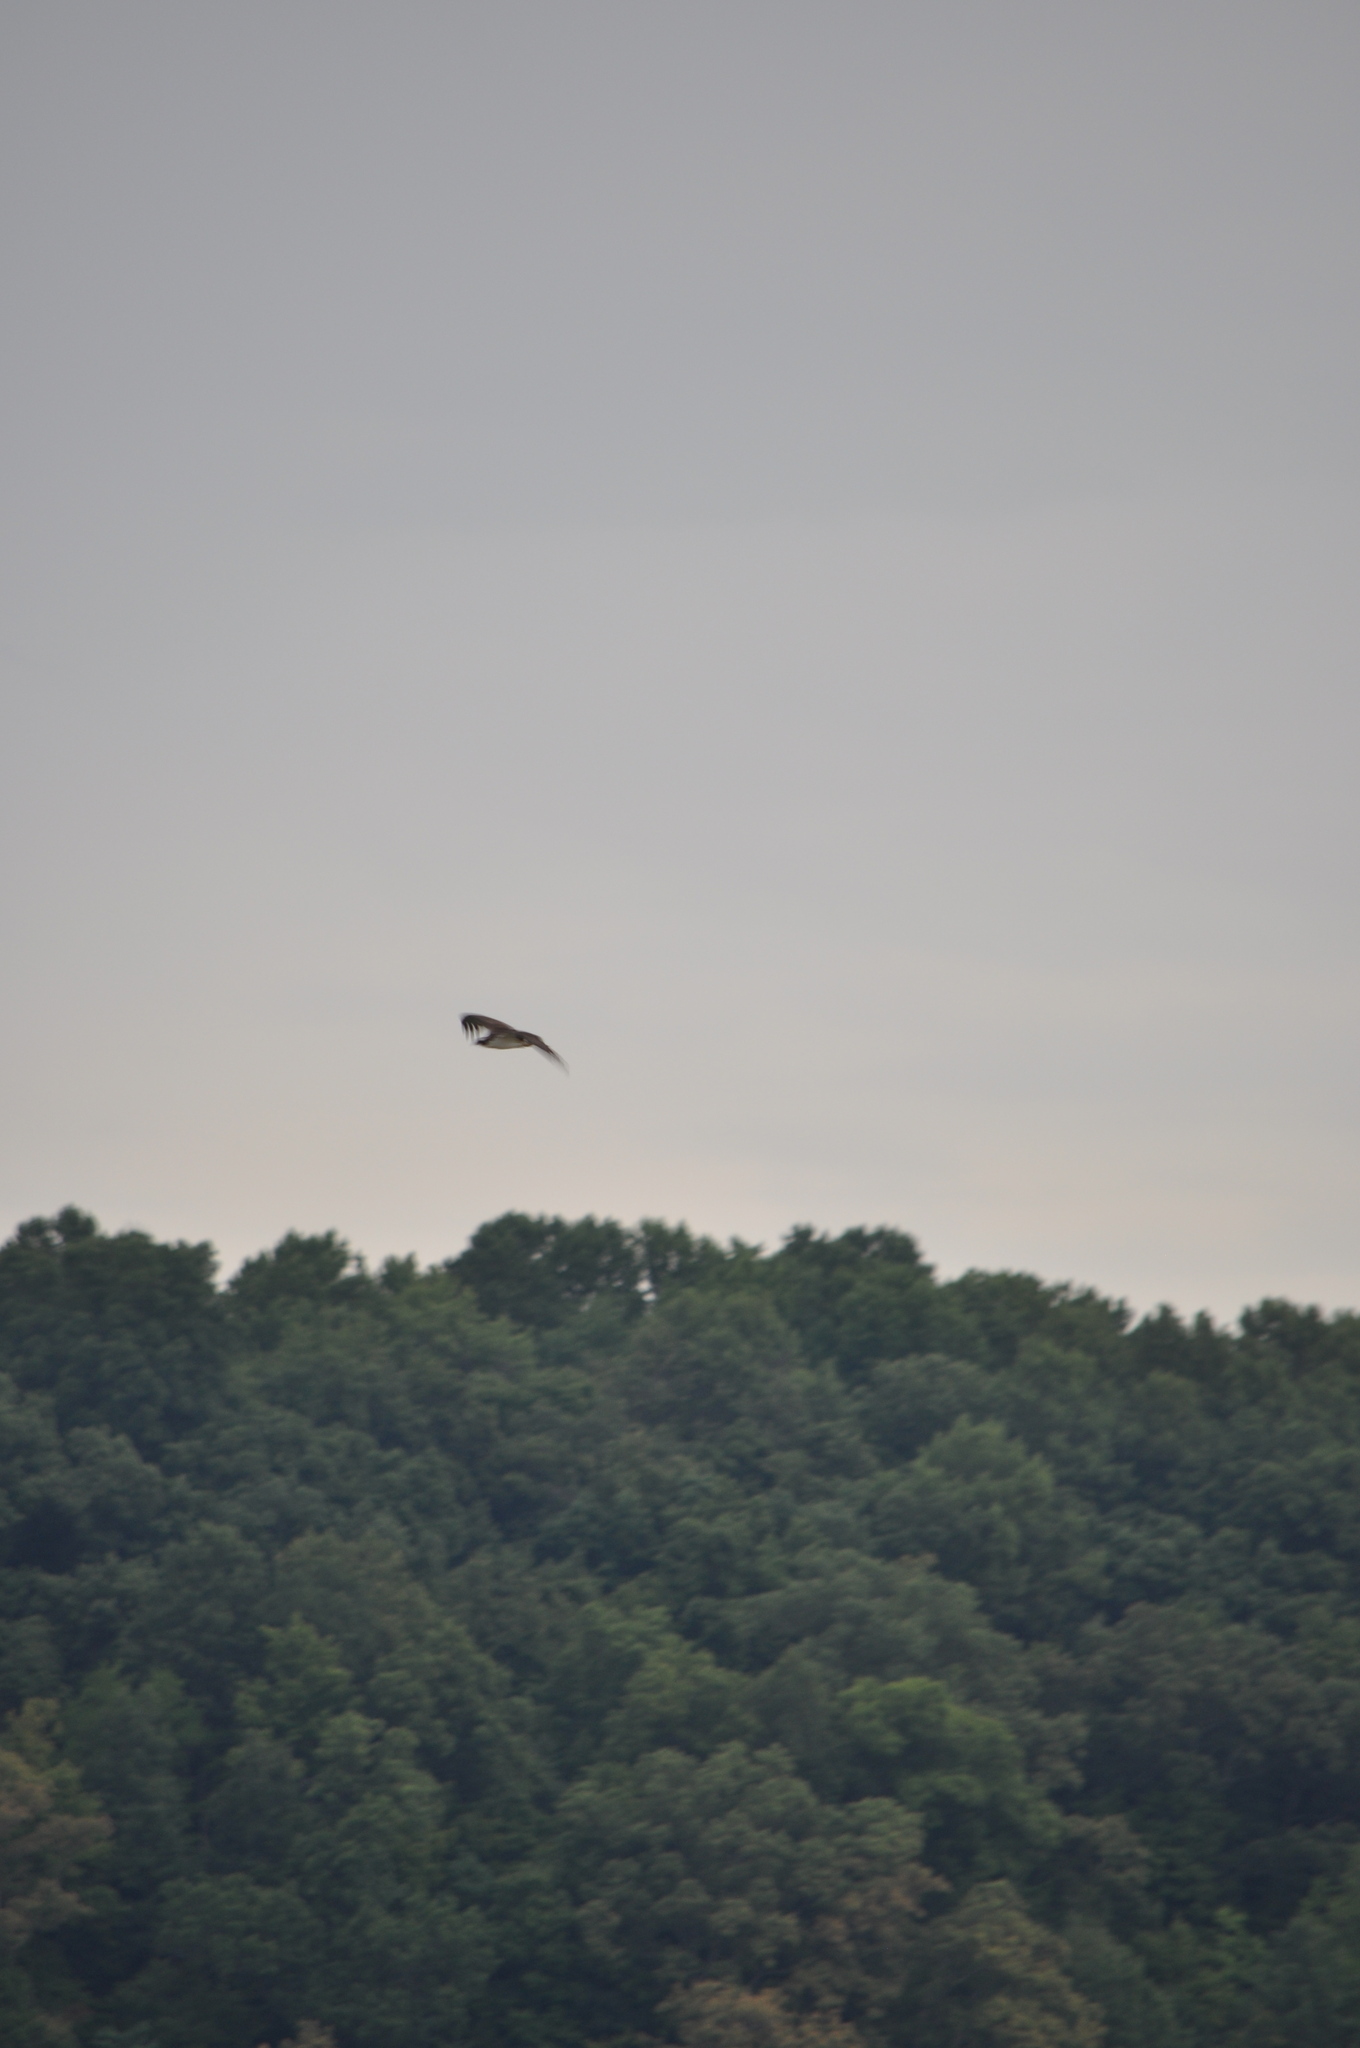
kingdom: Animalia
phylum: Chordata
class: Aves
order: Accipitriformes
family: Pandionidae
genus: Pandion
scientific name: Pandion haliaetus
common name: Osprey
